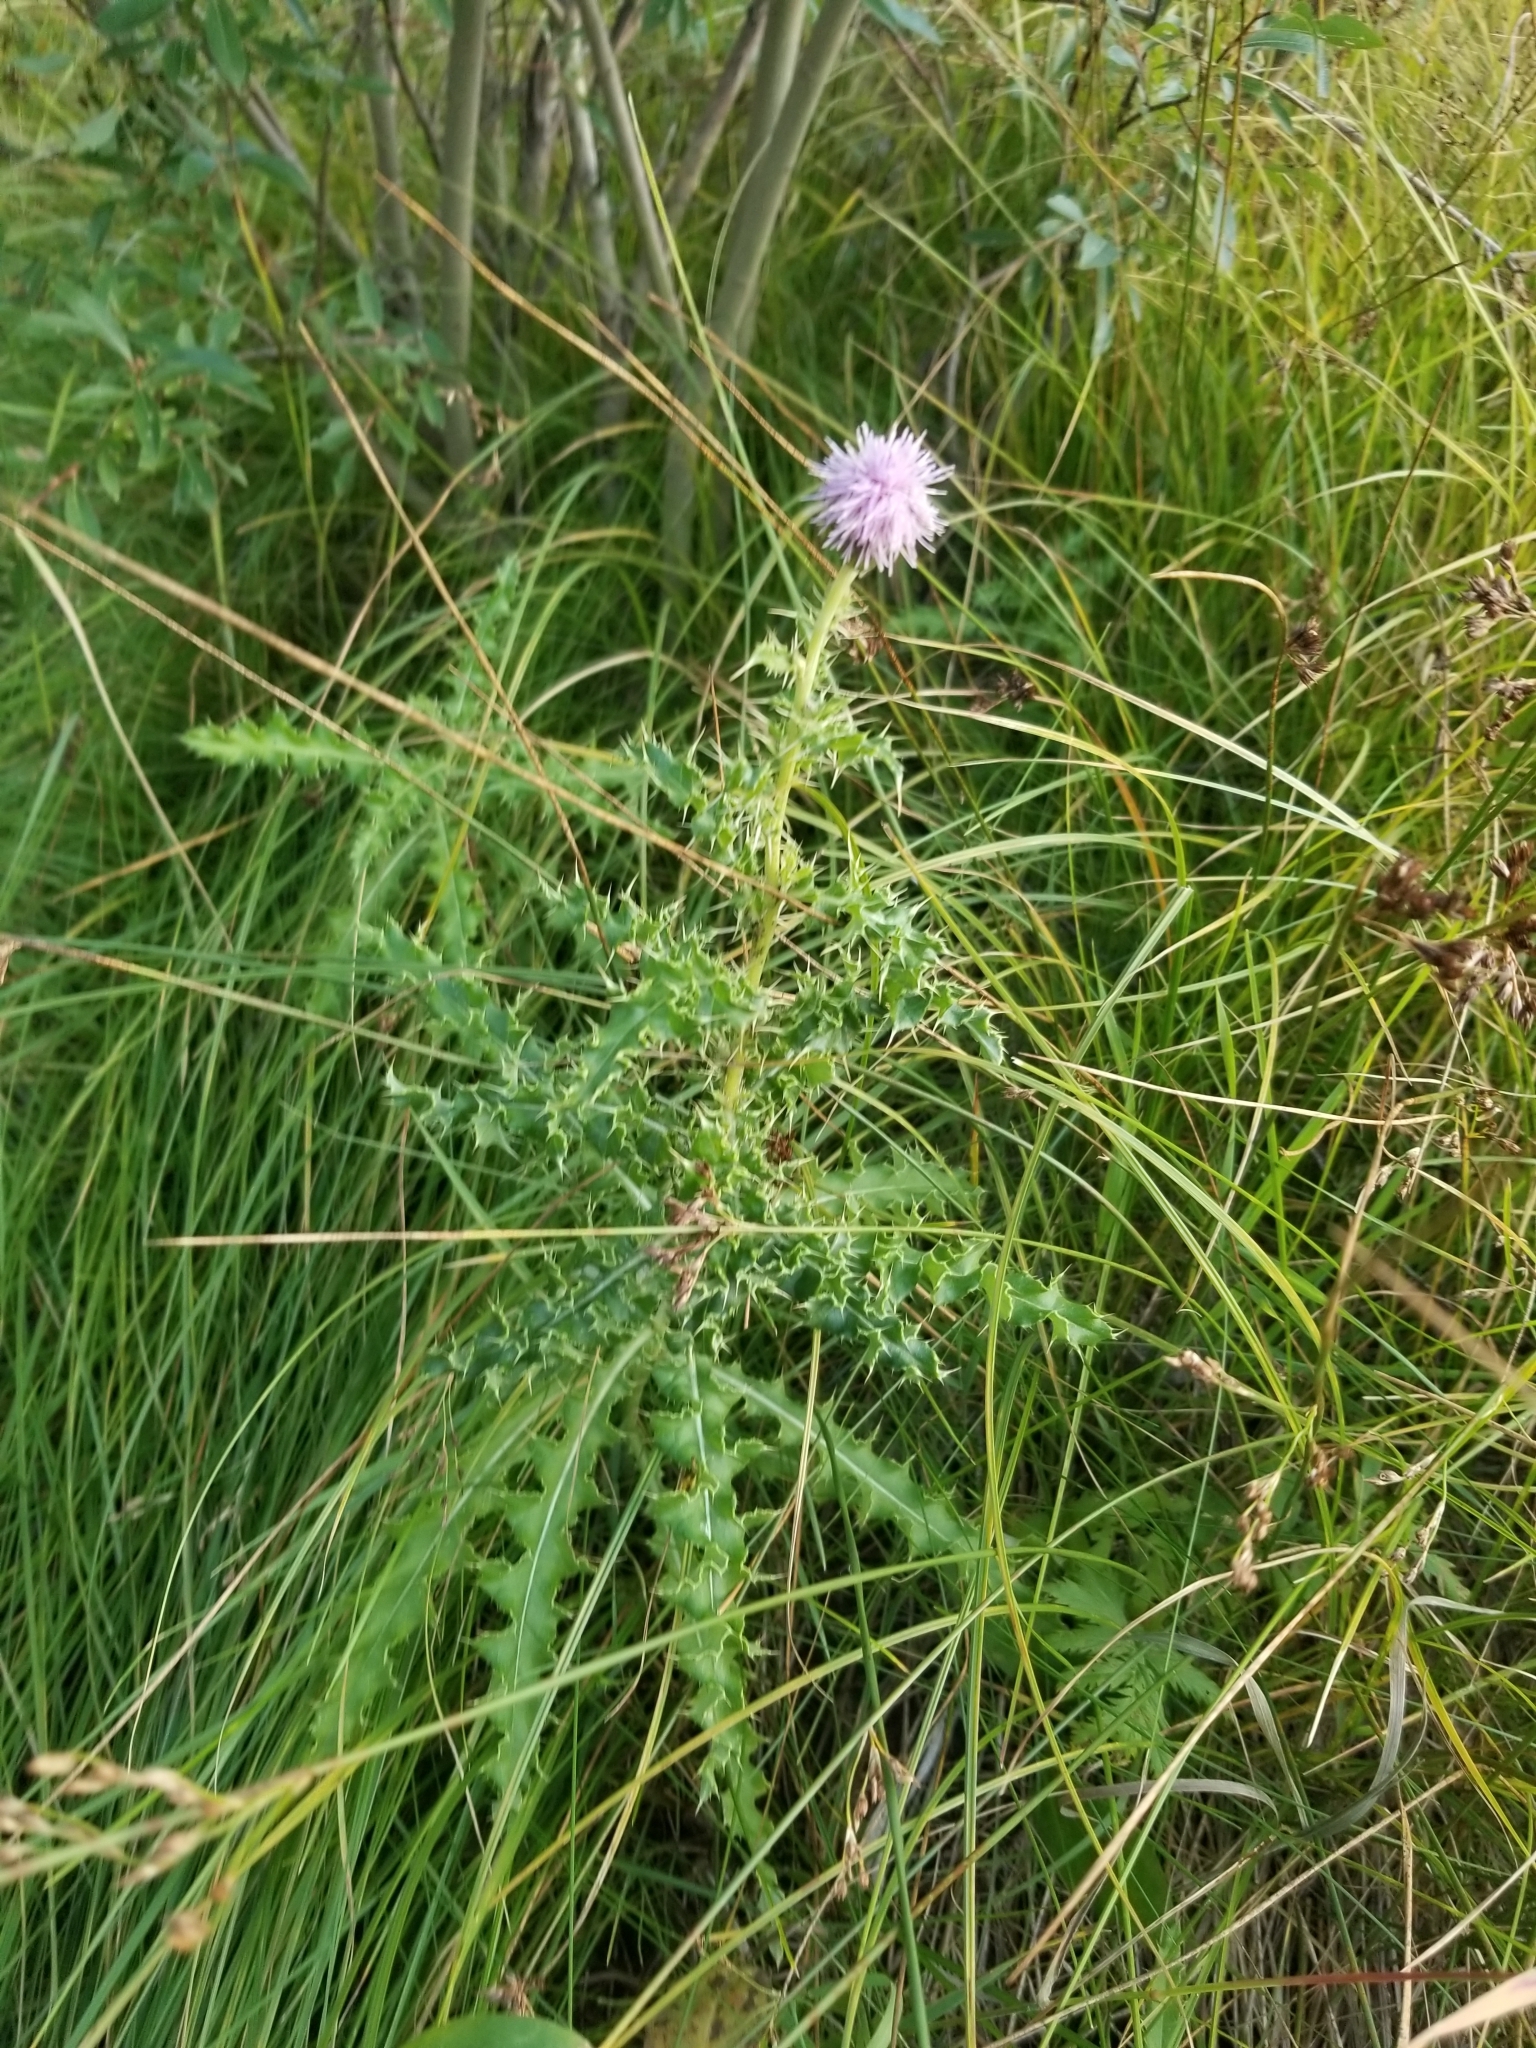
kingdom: Plantae
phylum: Tracheophyta
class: Magnoliopsida
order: Asterales
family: Asteraceae
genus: Cirsium
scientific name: Cirsium arvense
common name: Creeping thistle
